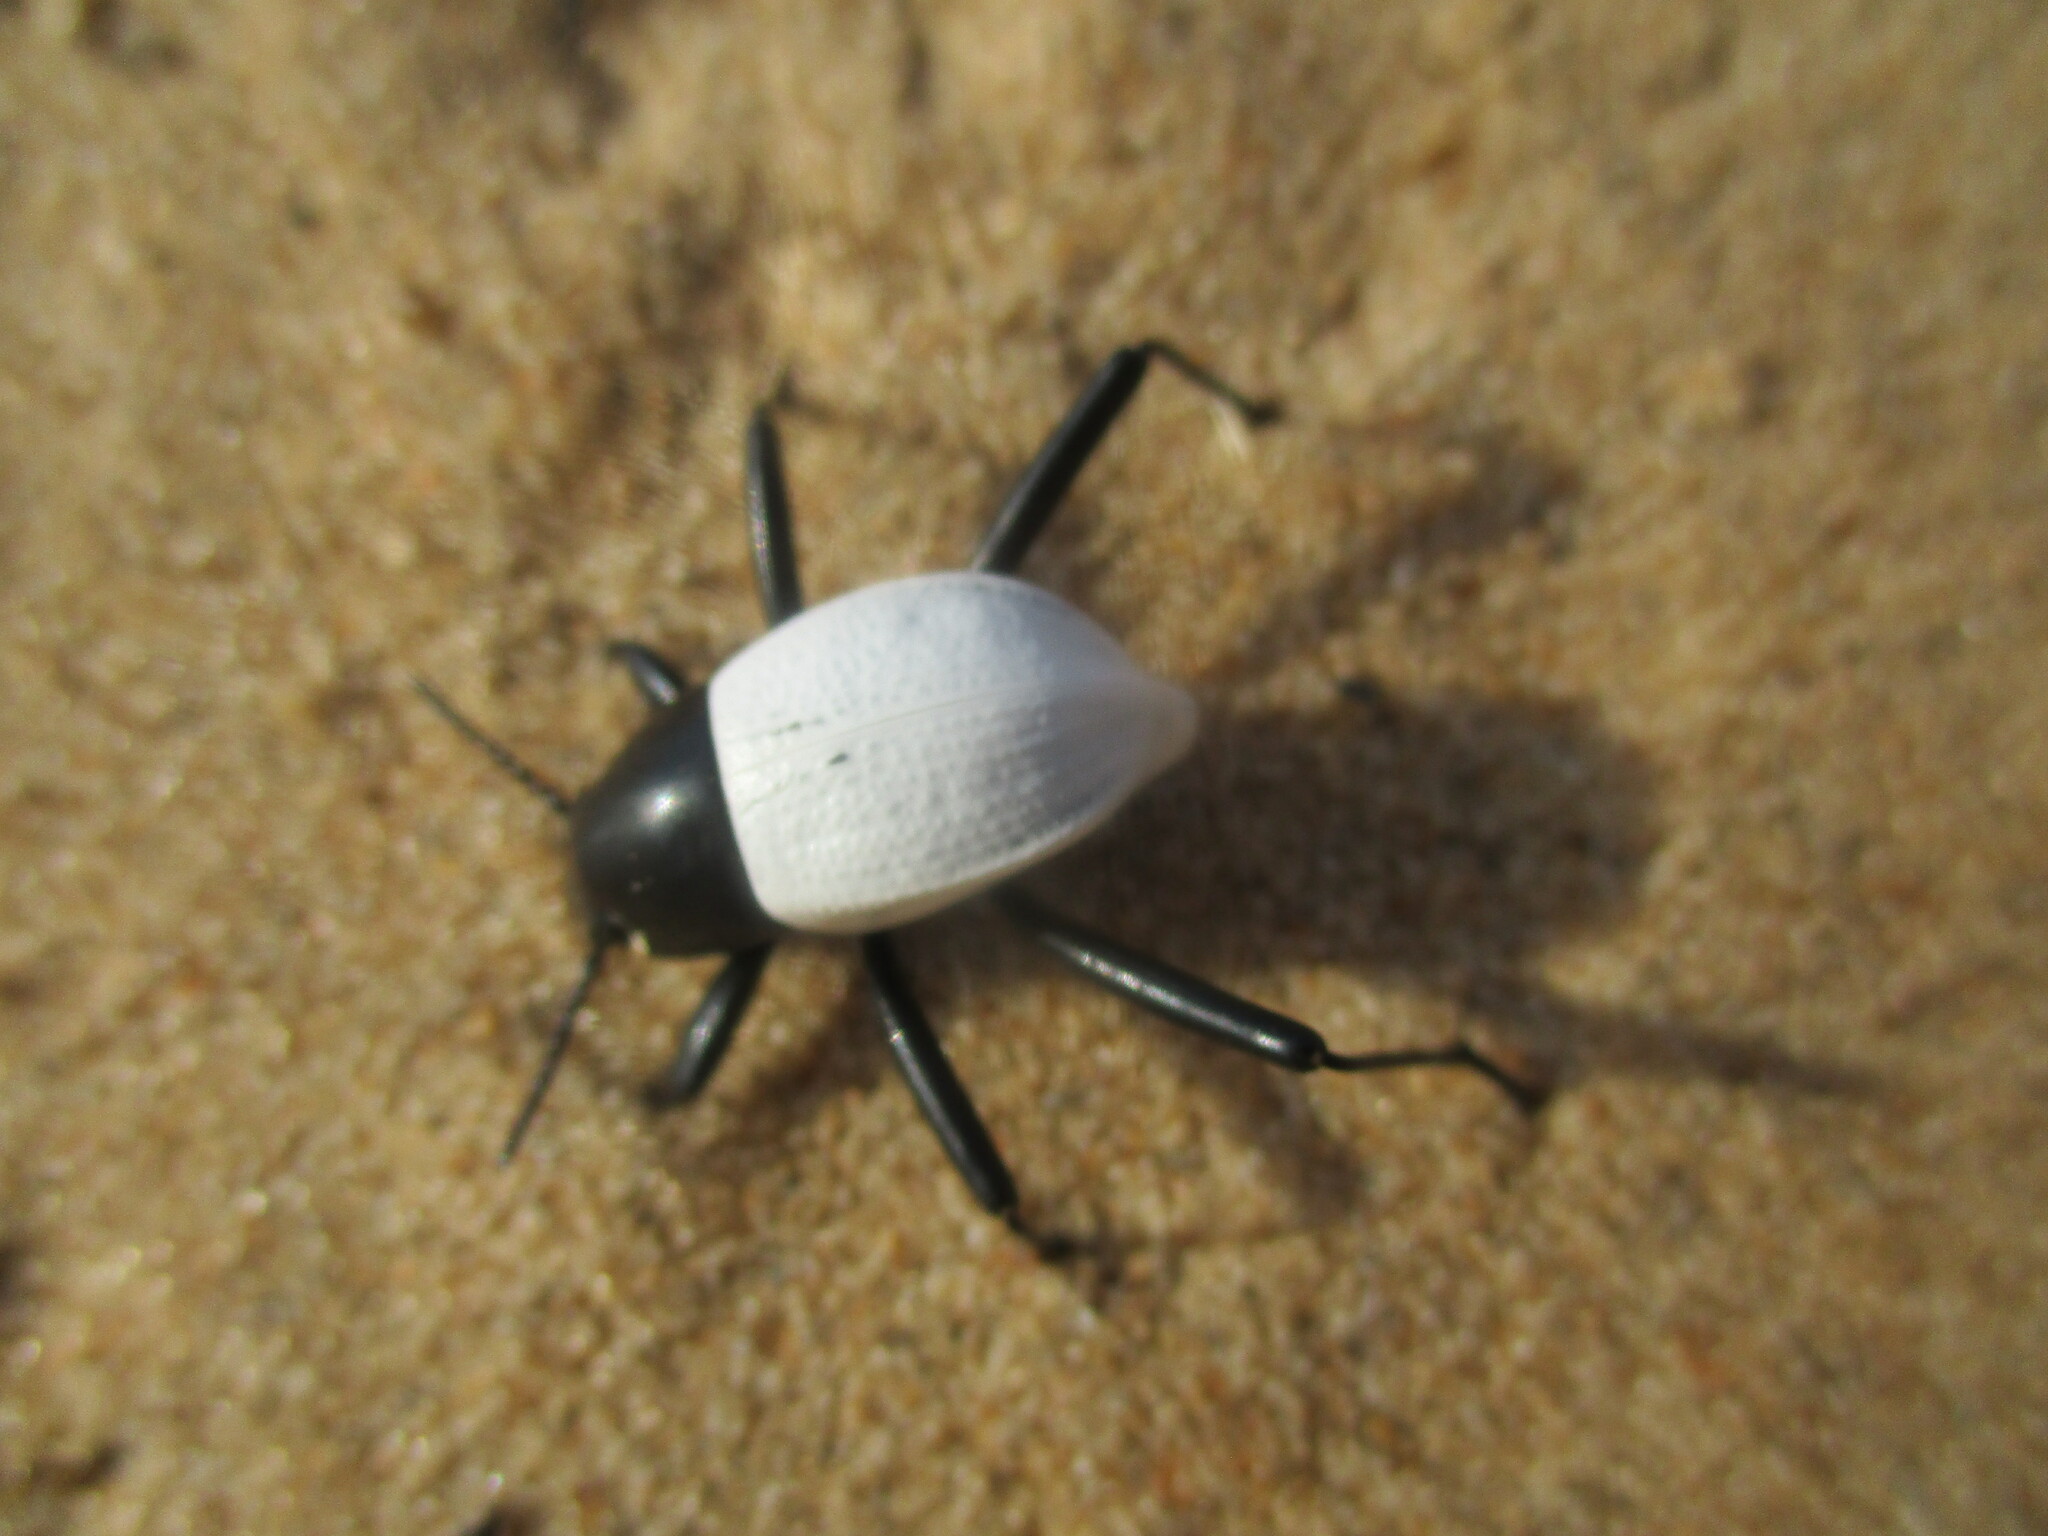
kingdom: Animalia
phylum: Arthropoda
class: Insecta
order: Coleoptera
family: Tenebrionidae
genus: Onymacris
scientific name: Onymacris
